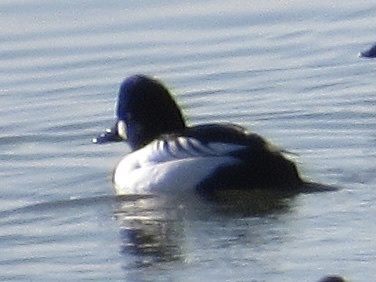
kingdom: Animalia
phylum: Chordata
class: Aves
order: Anseriformes
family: Anatidae
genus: Bucephala
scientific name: Bucephala clangula
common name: Common goldeneye
